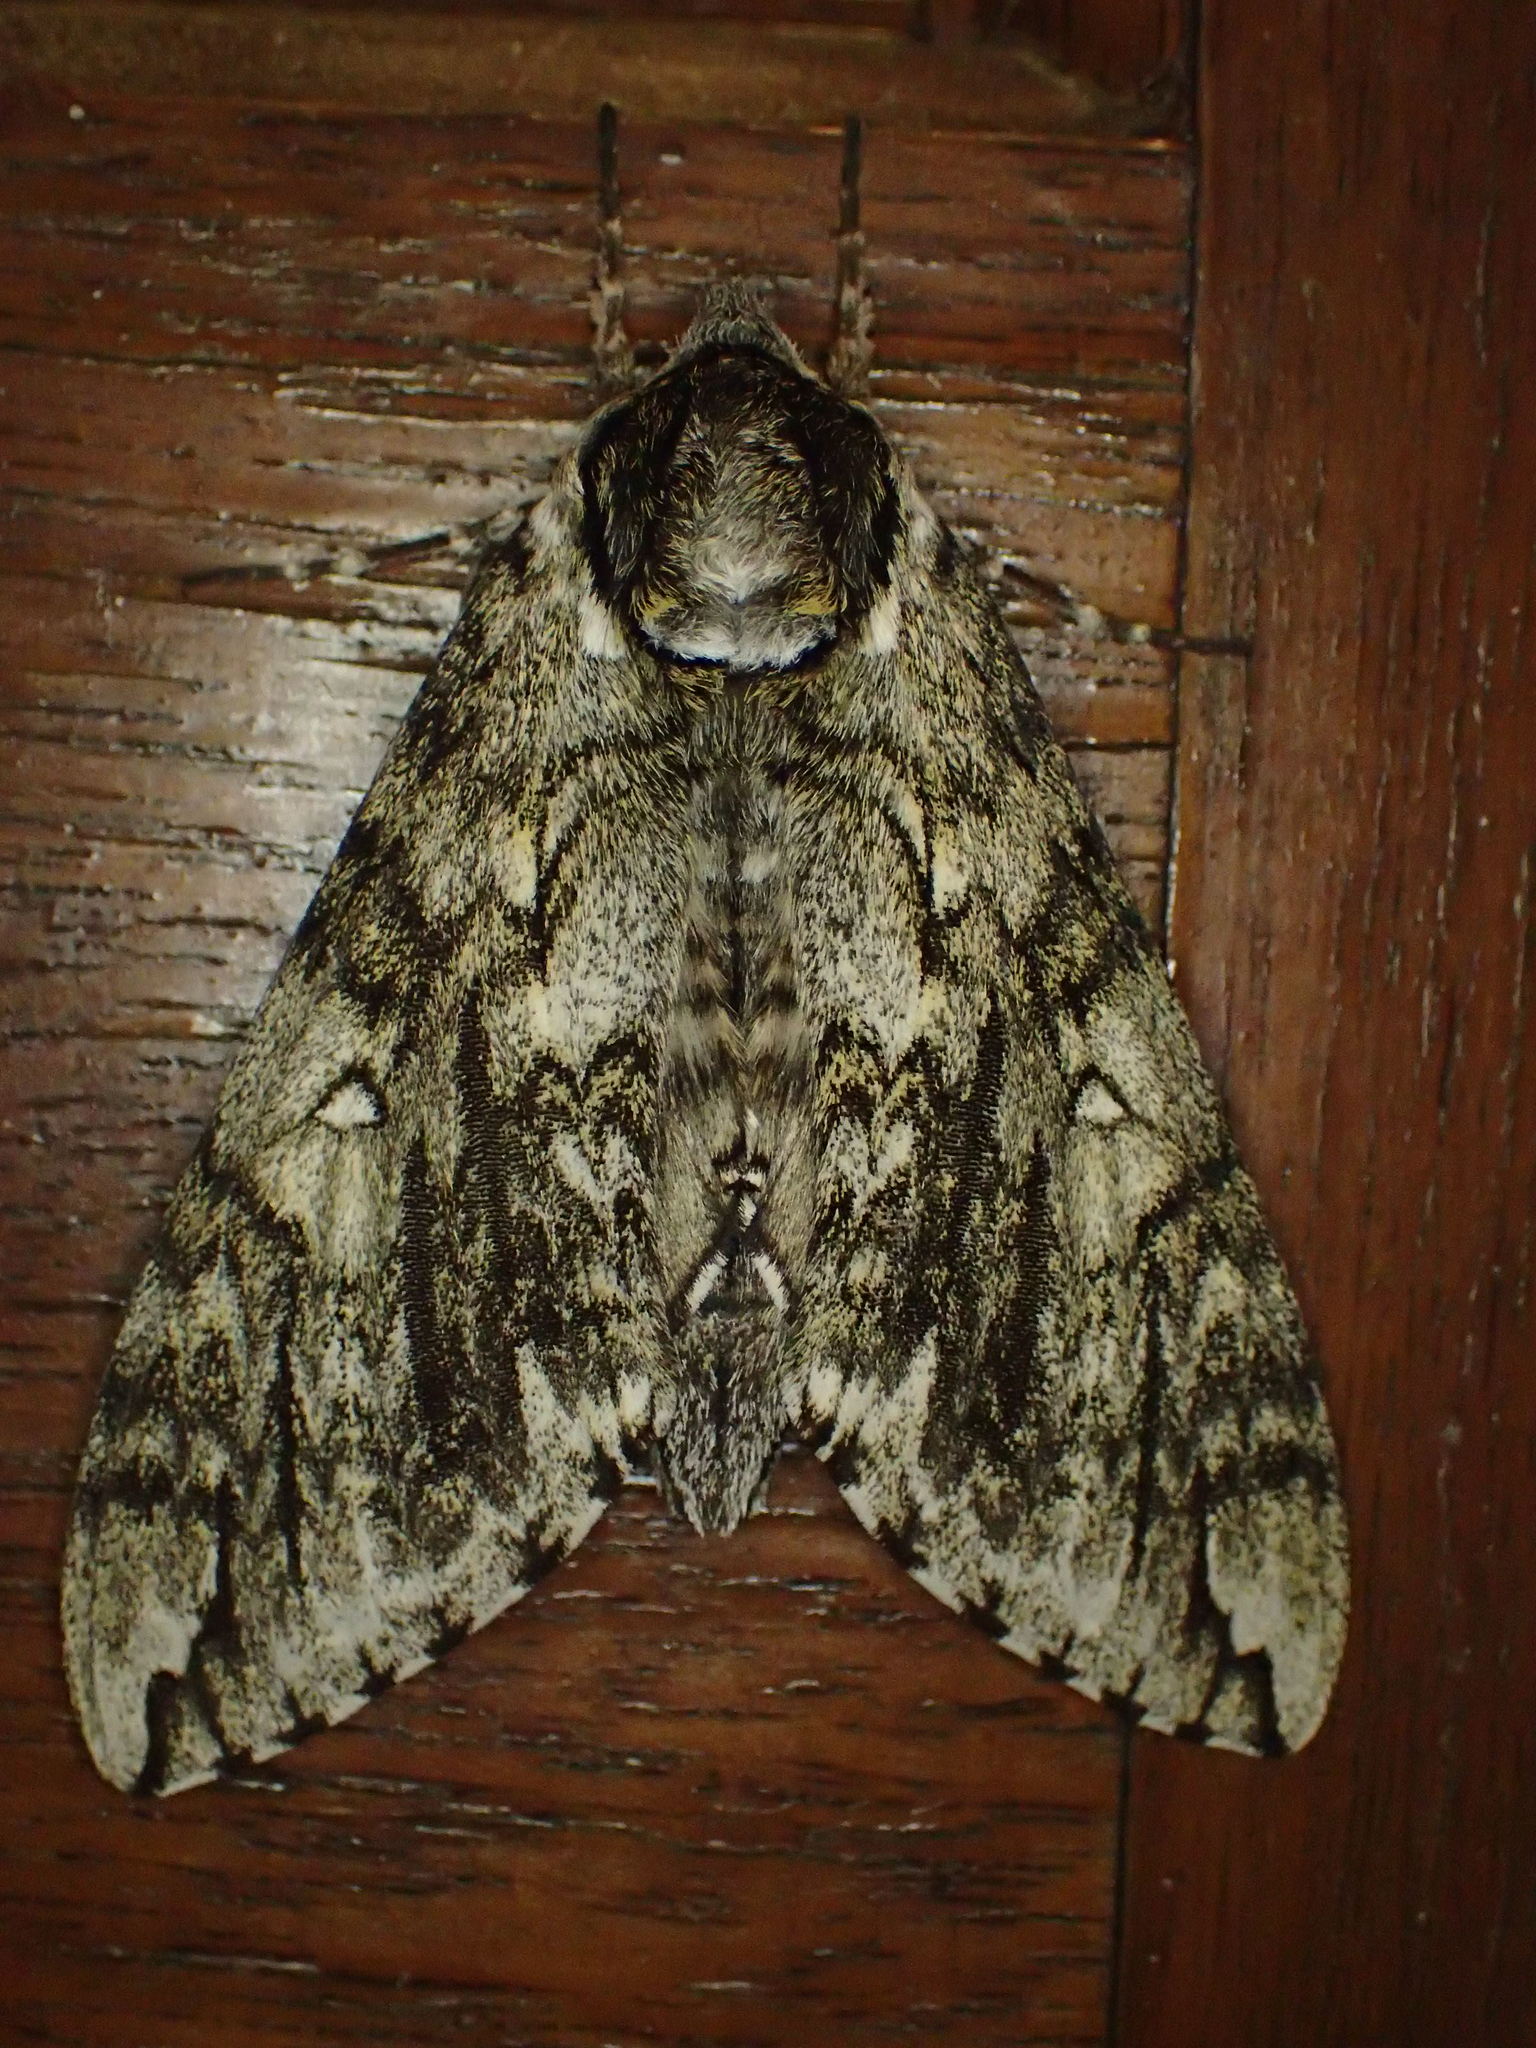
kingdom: Animalia
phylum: Arthropoda
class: Insecta
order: Lepidoptera
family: Sphingidae
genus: Ceratomia
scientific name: Ceratomia undulosa
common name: Waved sphinx
